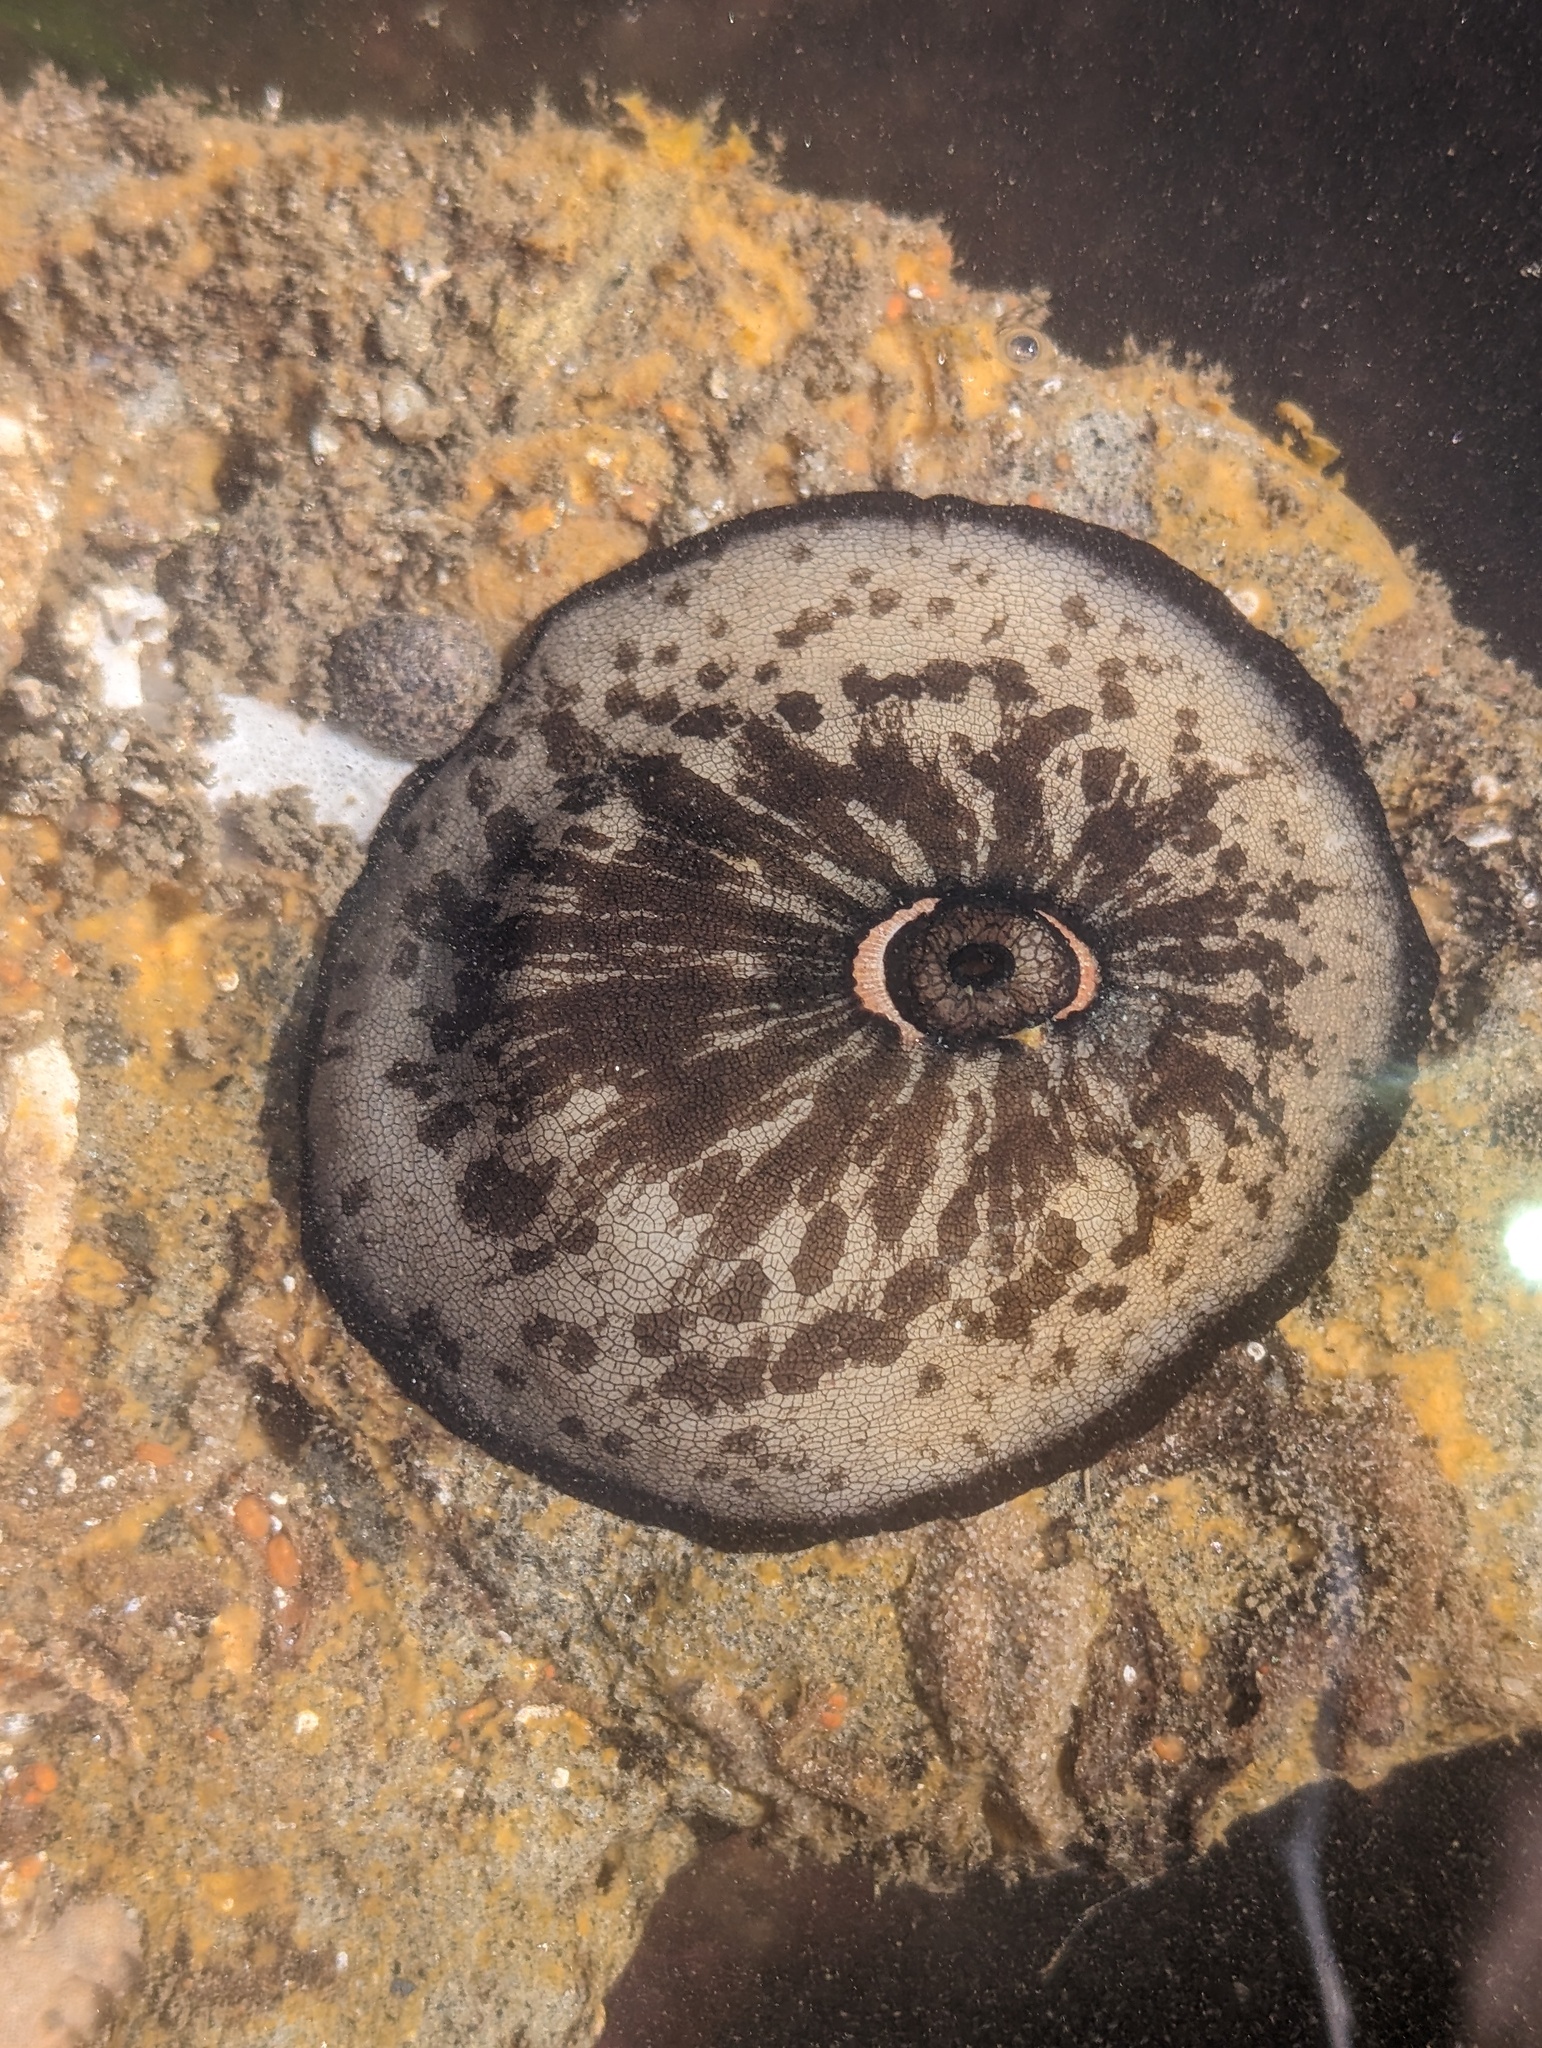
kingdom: Animalia
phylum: Mollusca
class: Gastropoda
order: Lepetellida
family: Fissurellidae
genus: Megathura
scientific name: Megathura crenulata
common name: Giant keyhole limpet
